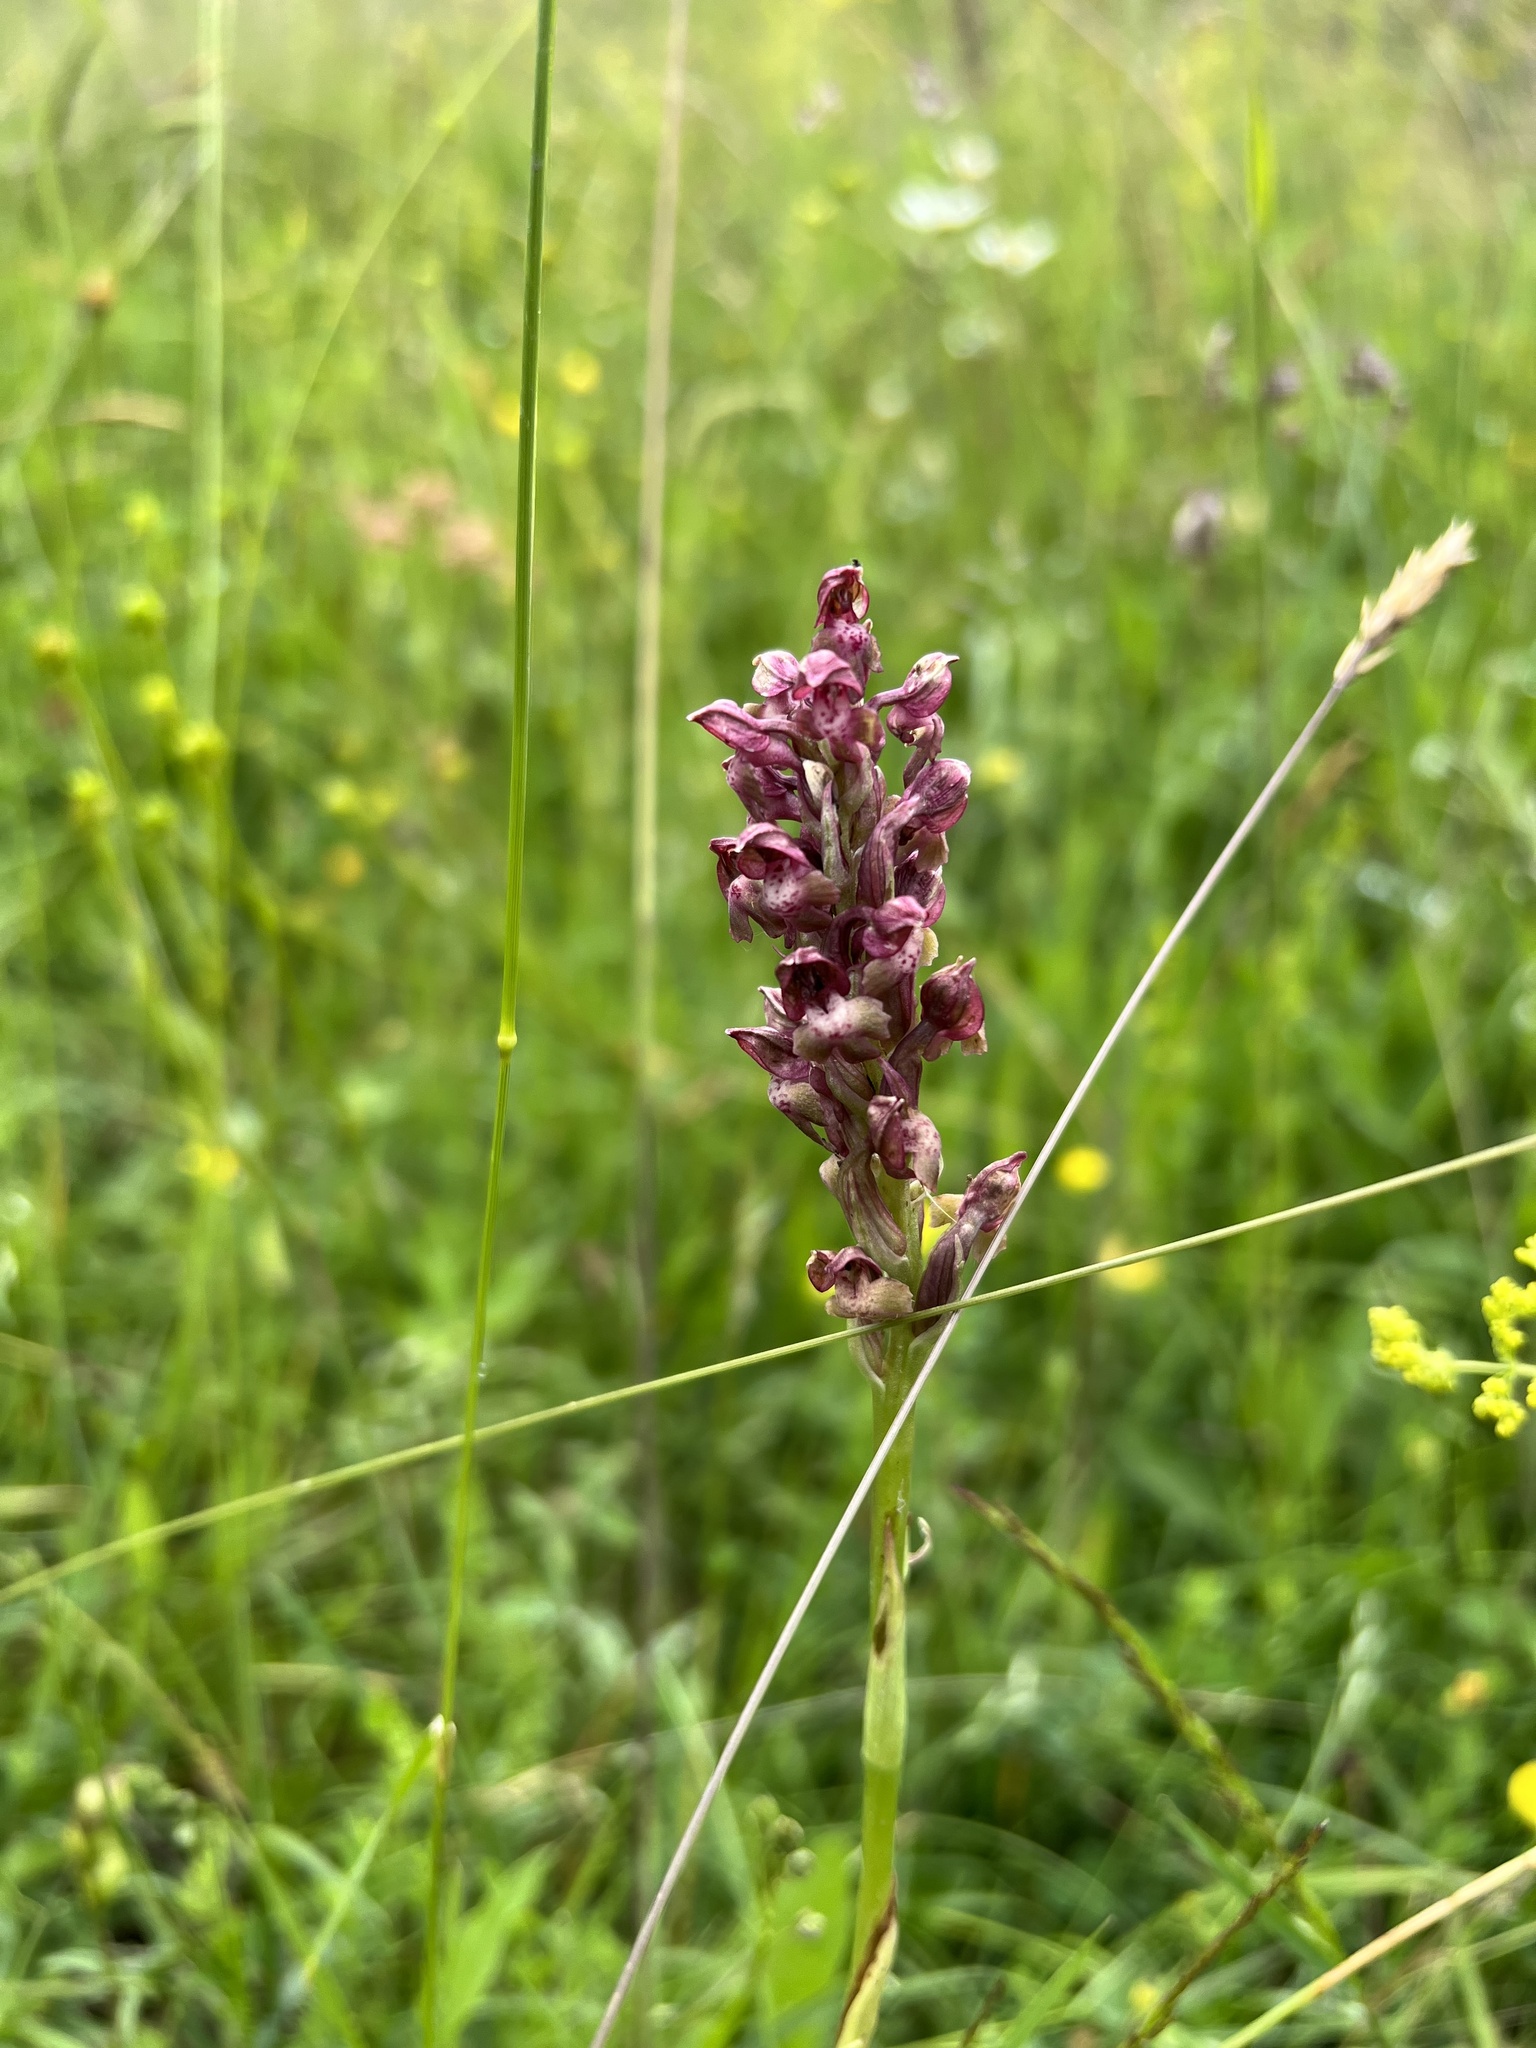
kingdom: Plantae
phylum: Tracheophyta
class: Liliopsida
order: Asparagales
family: Orchidaceae
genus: Anacamptis
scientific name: Anacamptis coriophora
